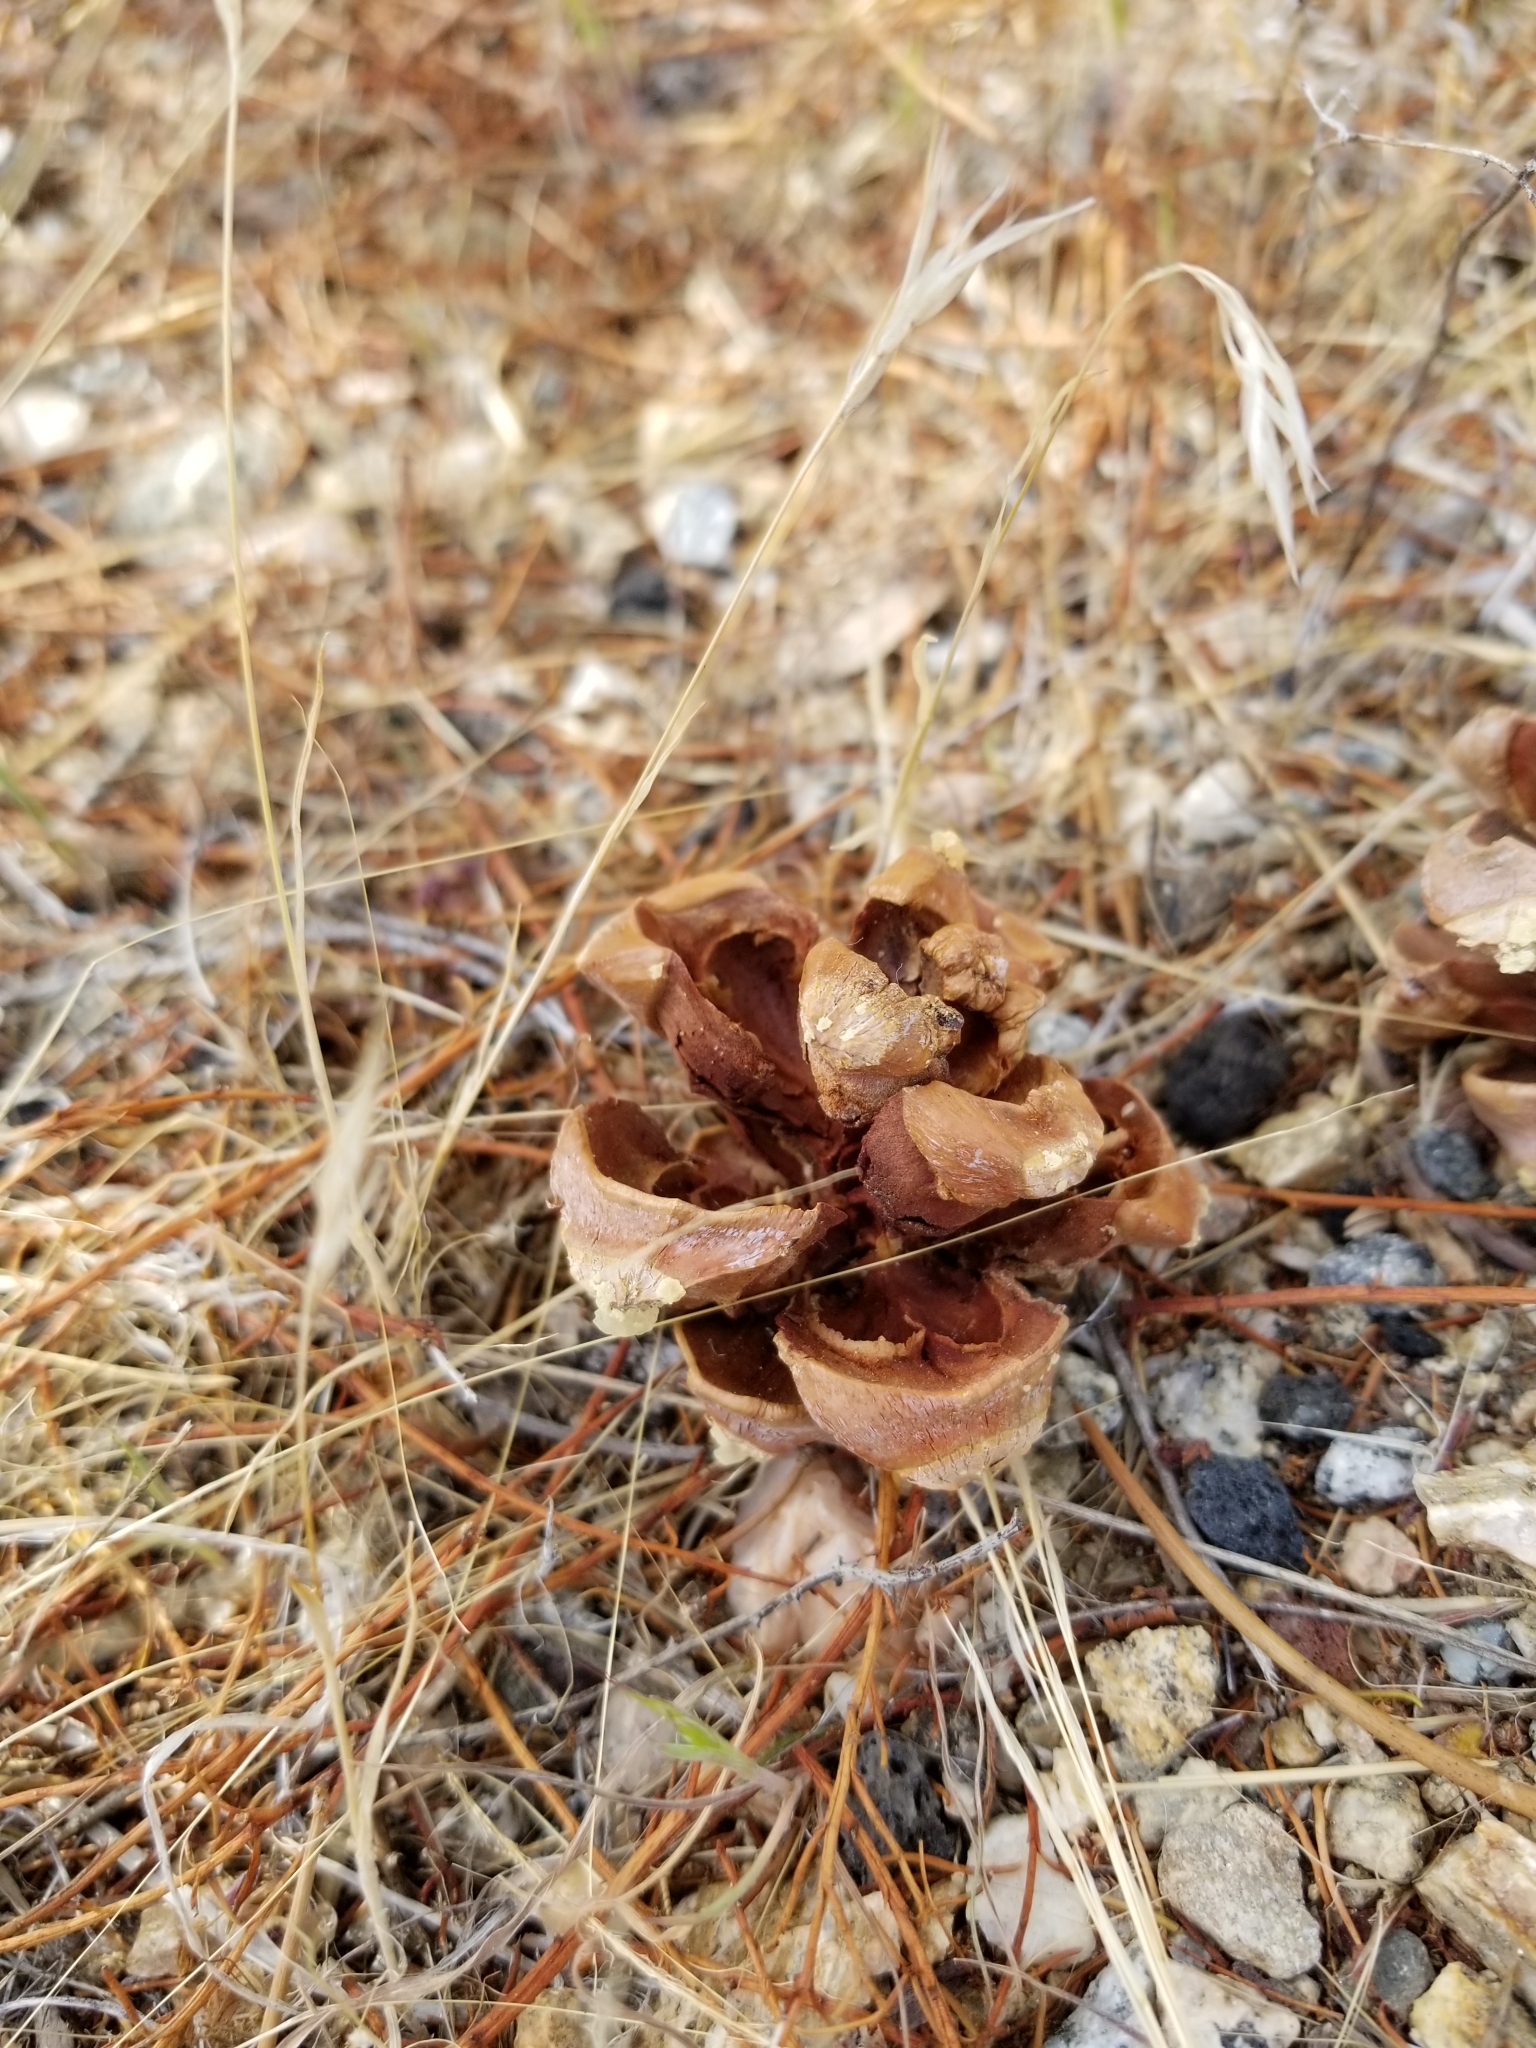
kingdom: Plantae
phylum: Tracheophyta
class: Pinopsida
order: Pinales
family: Pinaceae
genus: Pinus
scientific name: Pinus monophylla
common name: One-leaved nut pine
